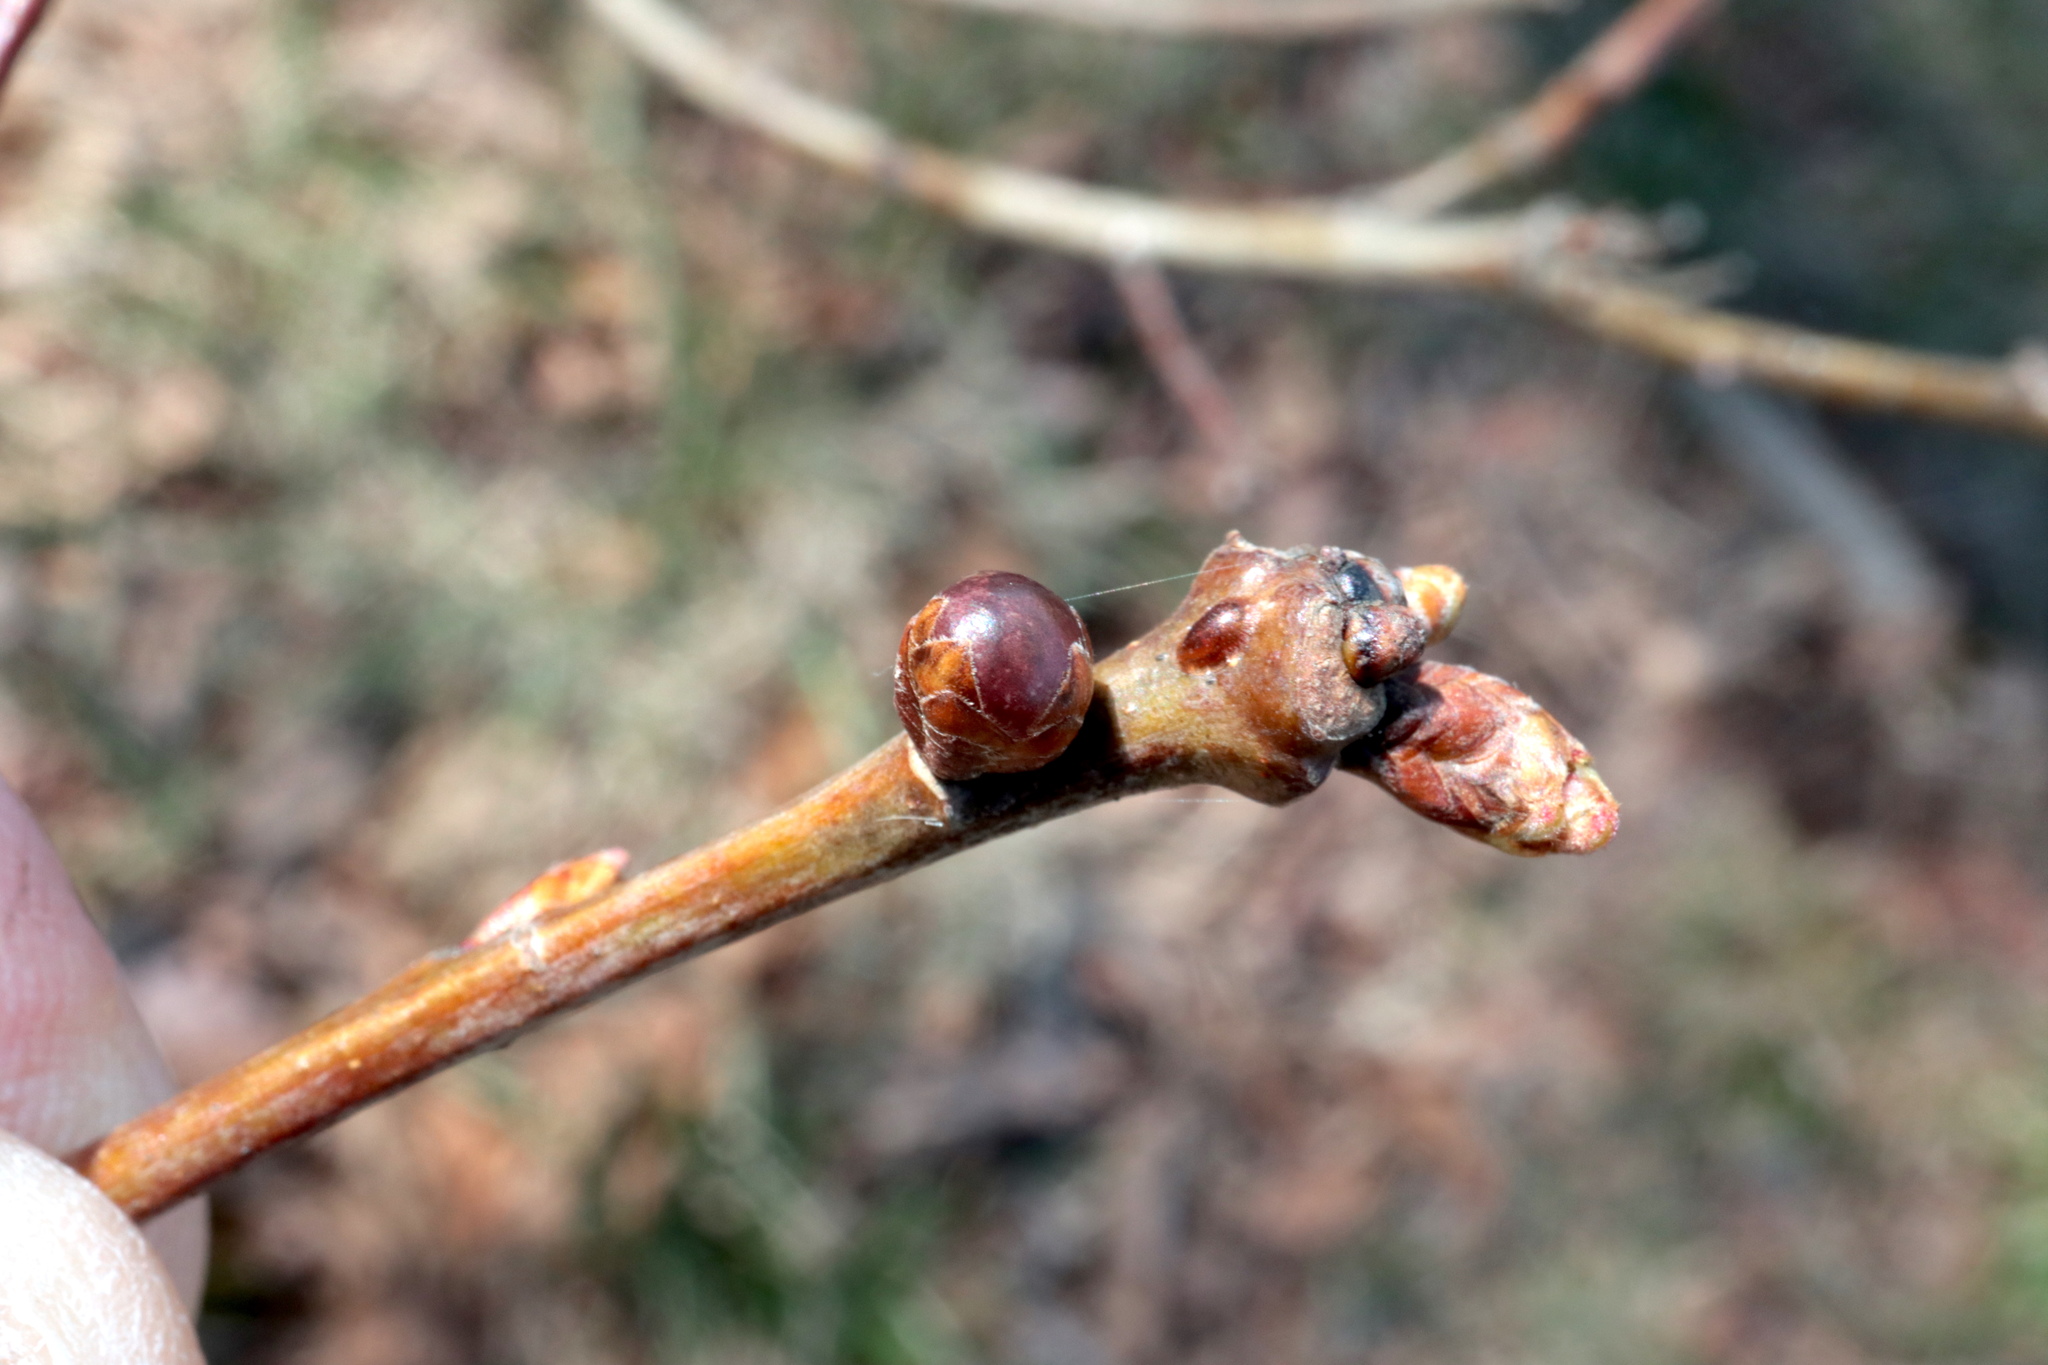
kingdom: Animalia
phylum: Arthropoda
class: Insecta
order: Hymenoptera
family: Cynipidae
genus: Neuroterus
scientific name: Neuroterus
